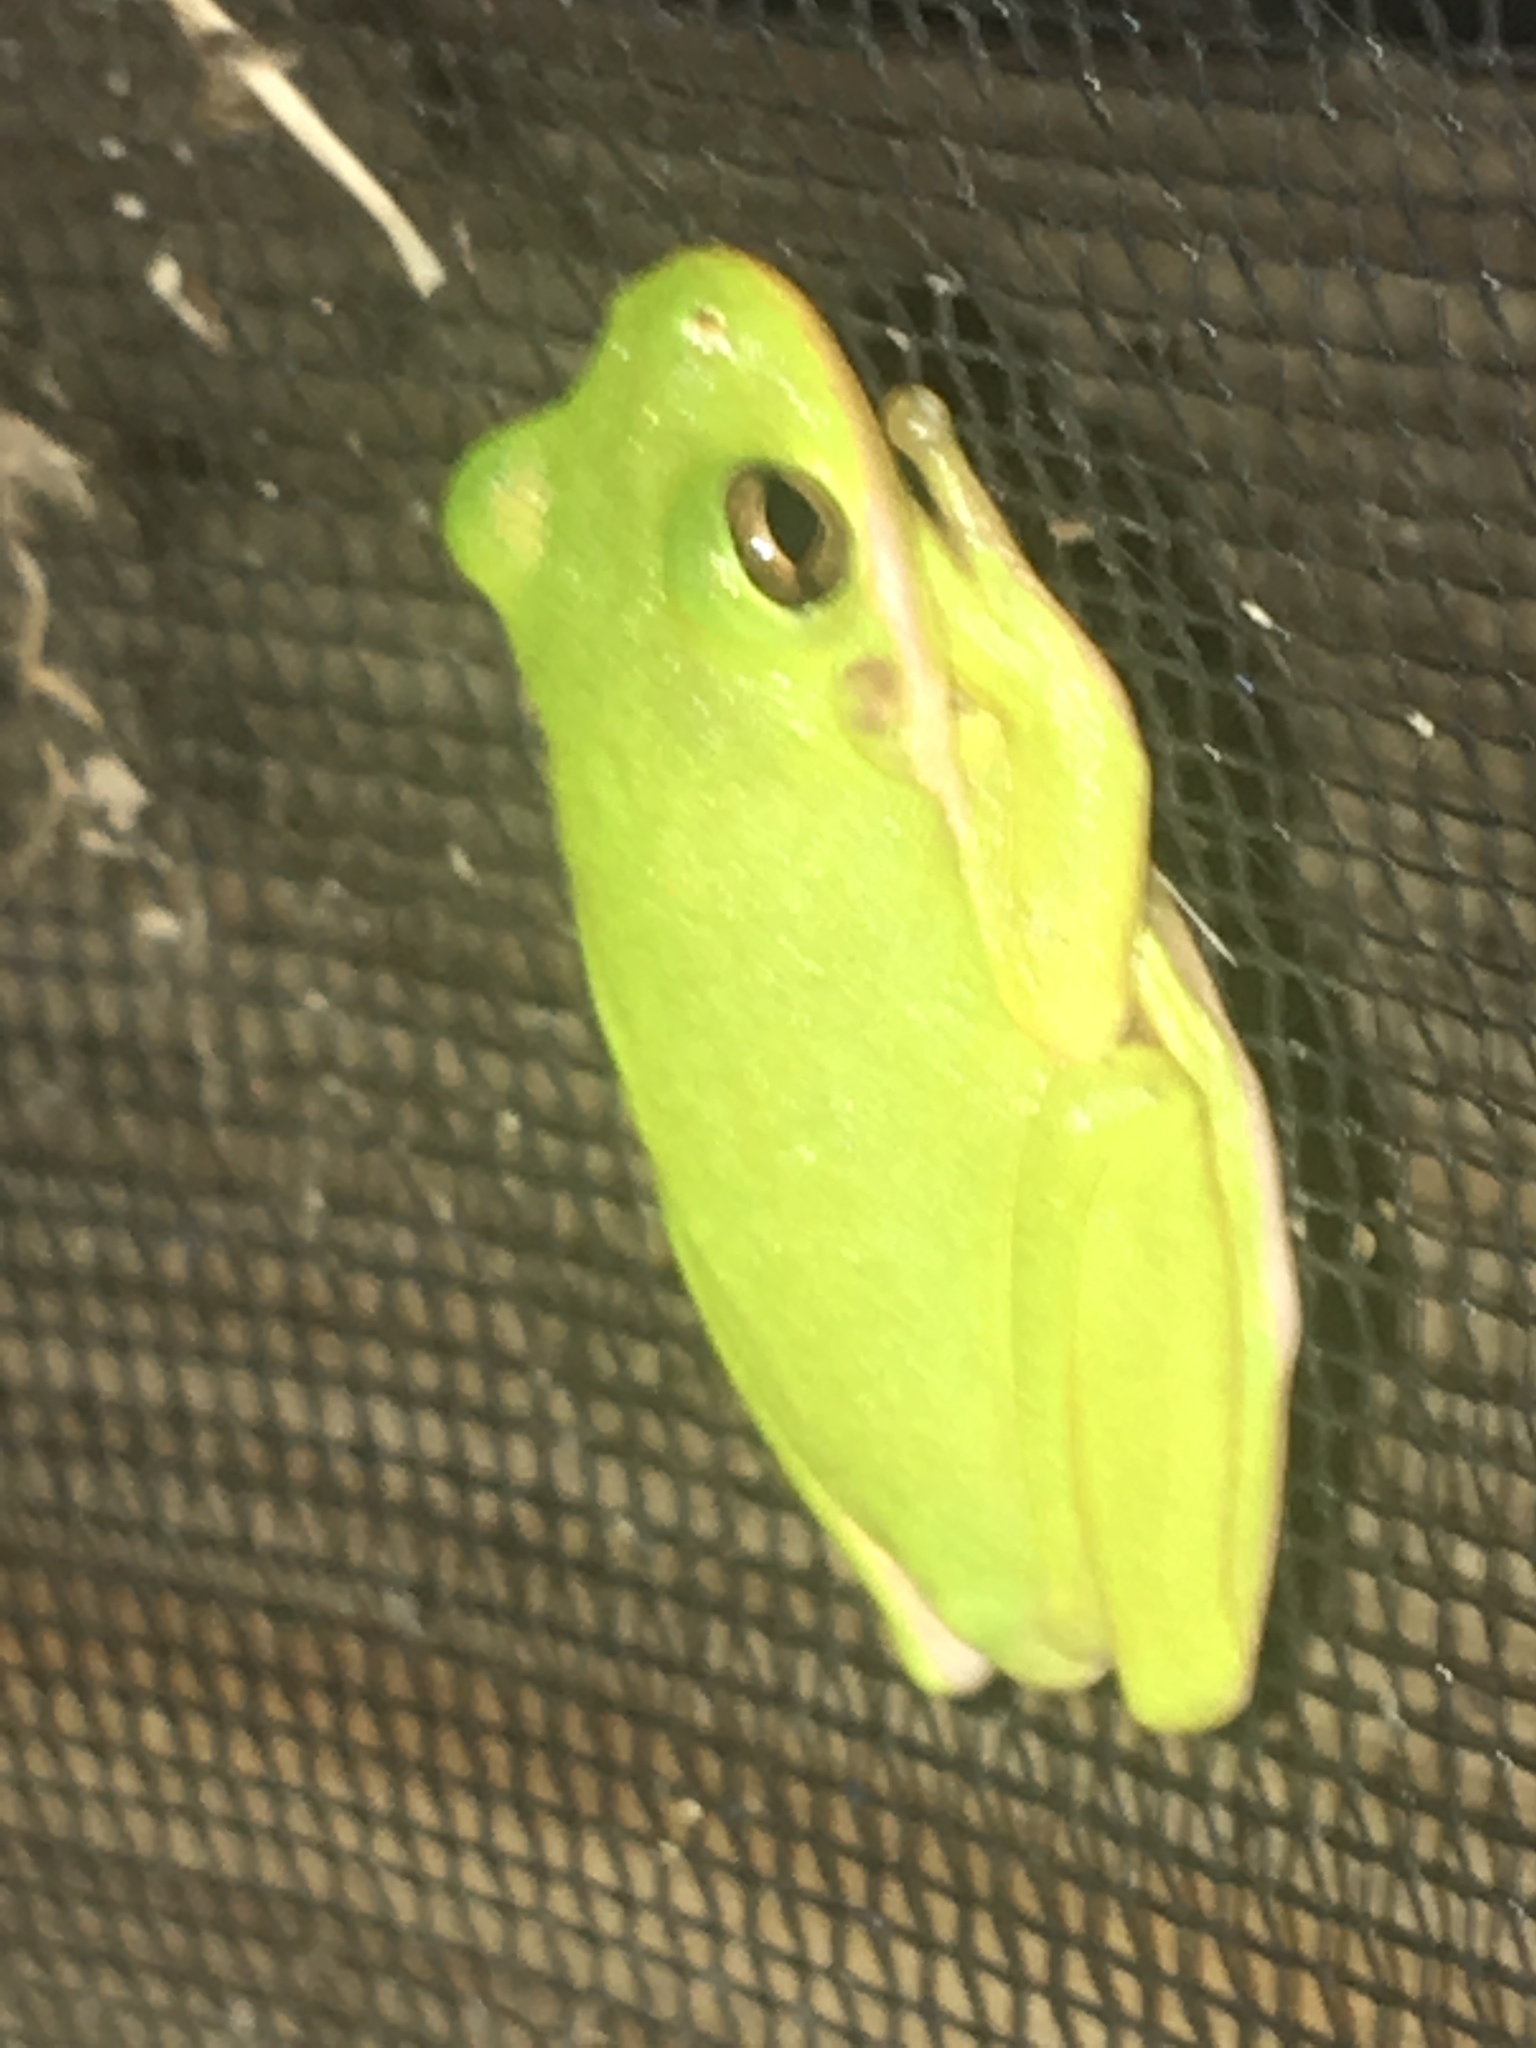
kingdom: Animalia
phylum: Chordata
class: Amphibia
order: Anura
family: Hylidae
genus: Dryophytes
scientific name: Dryophytes cinereus
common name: Green treefrog
